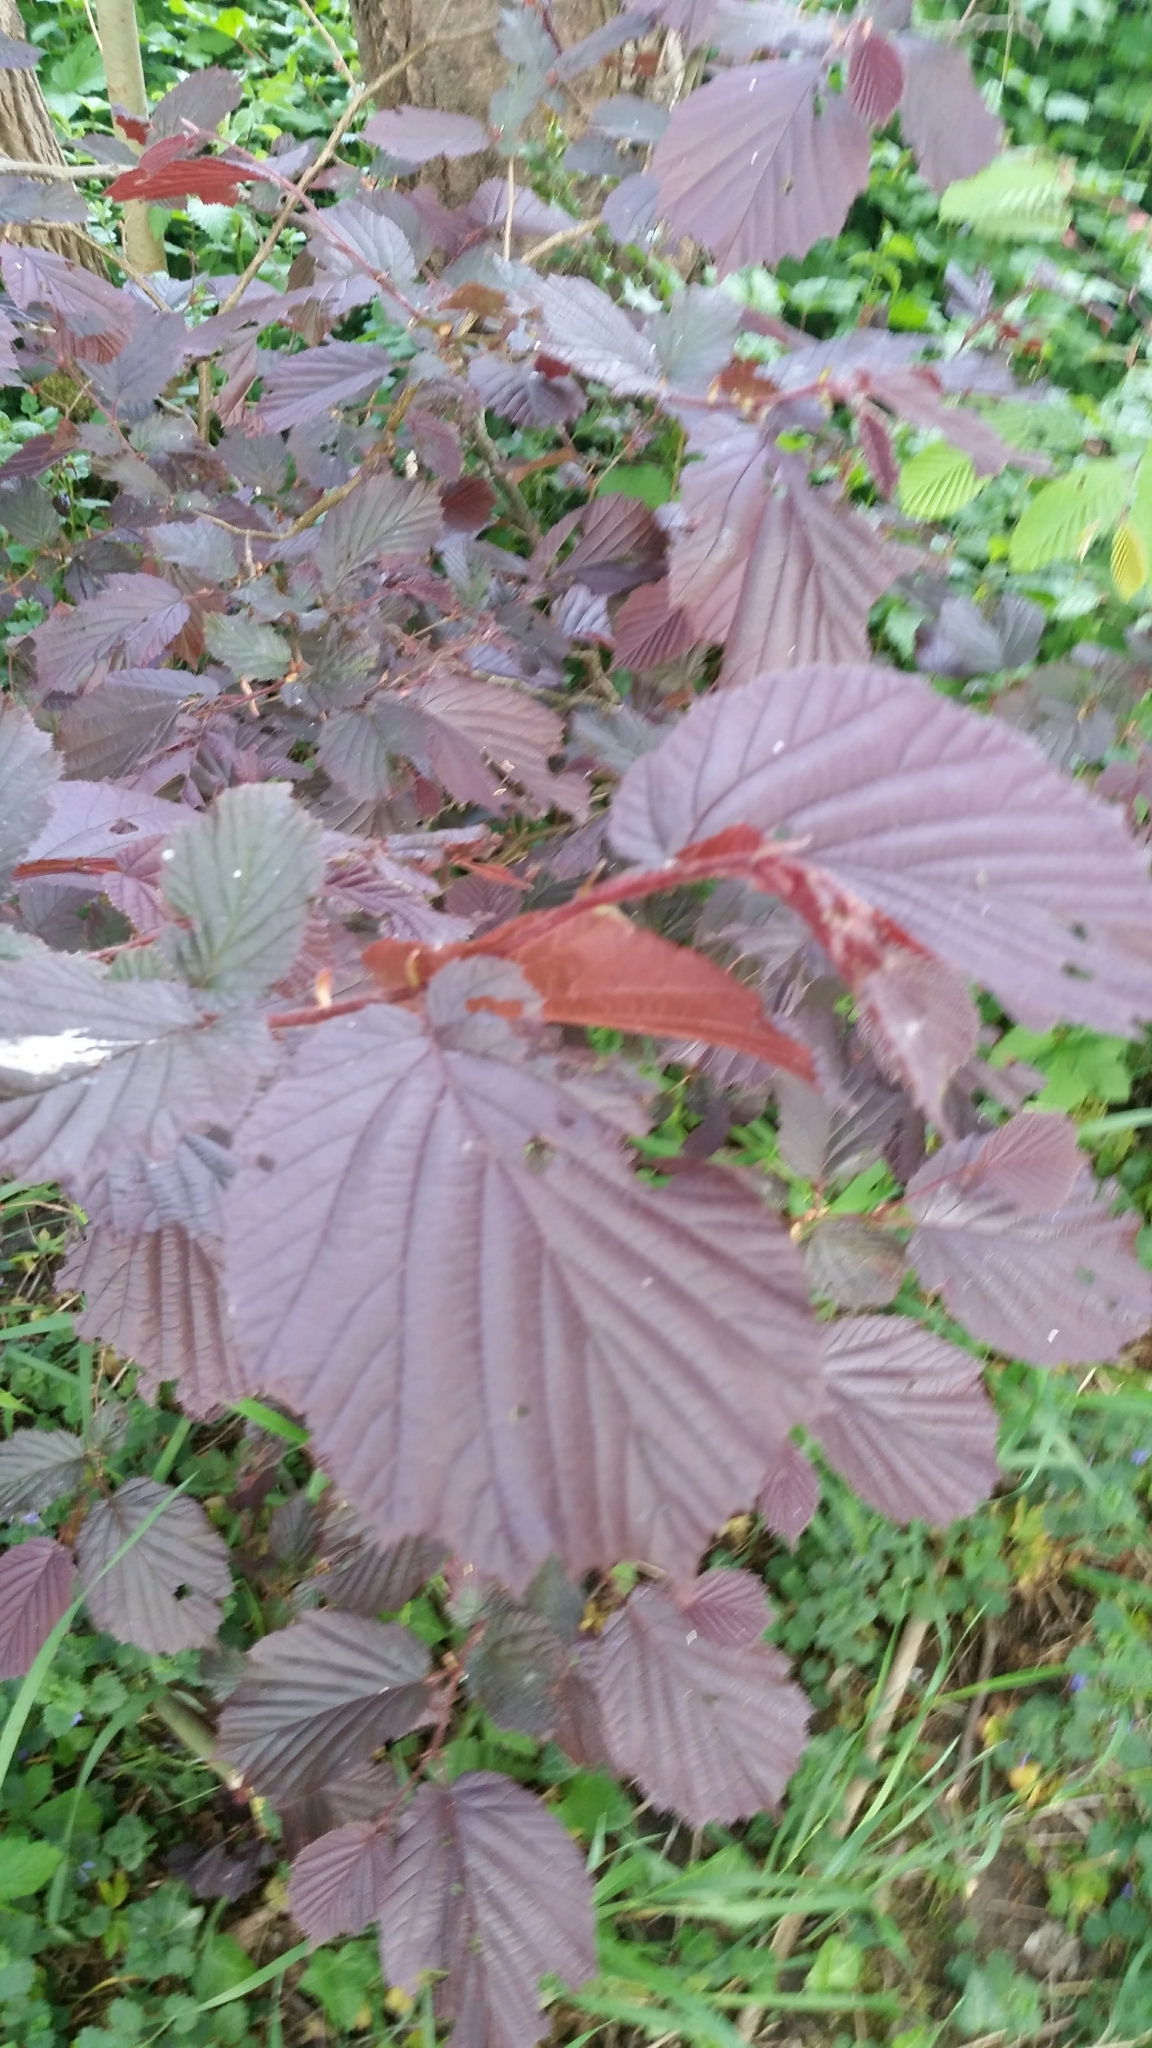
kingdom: Plantae
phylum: Tracheophyta
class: Magnoliopsida
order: Fagales
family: Betulaceae
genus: Corylus
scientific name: Corylus avellana
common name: European hazel
